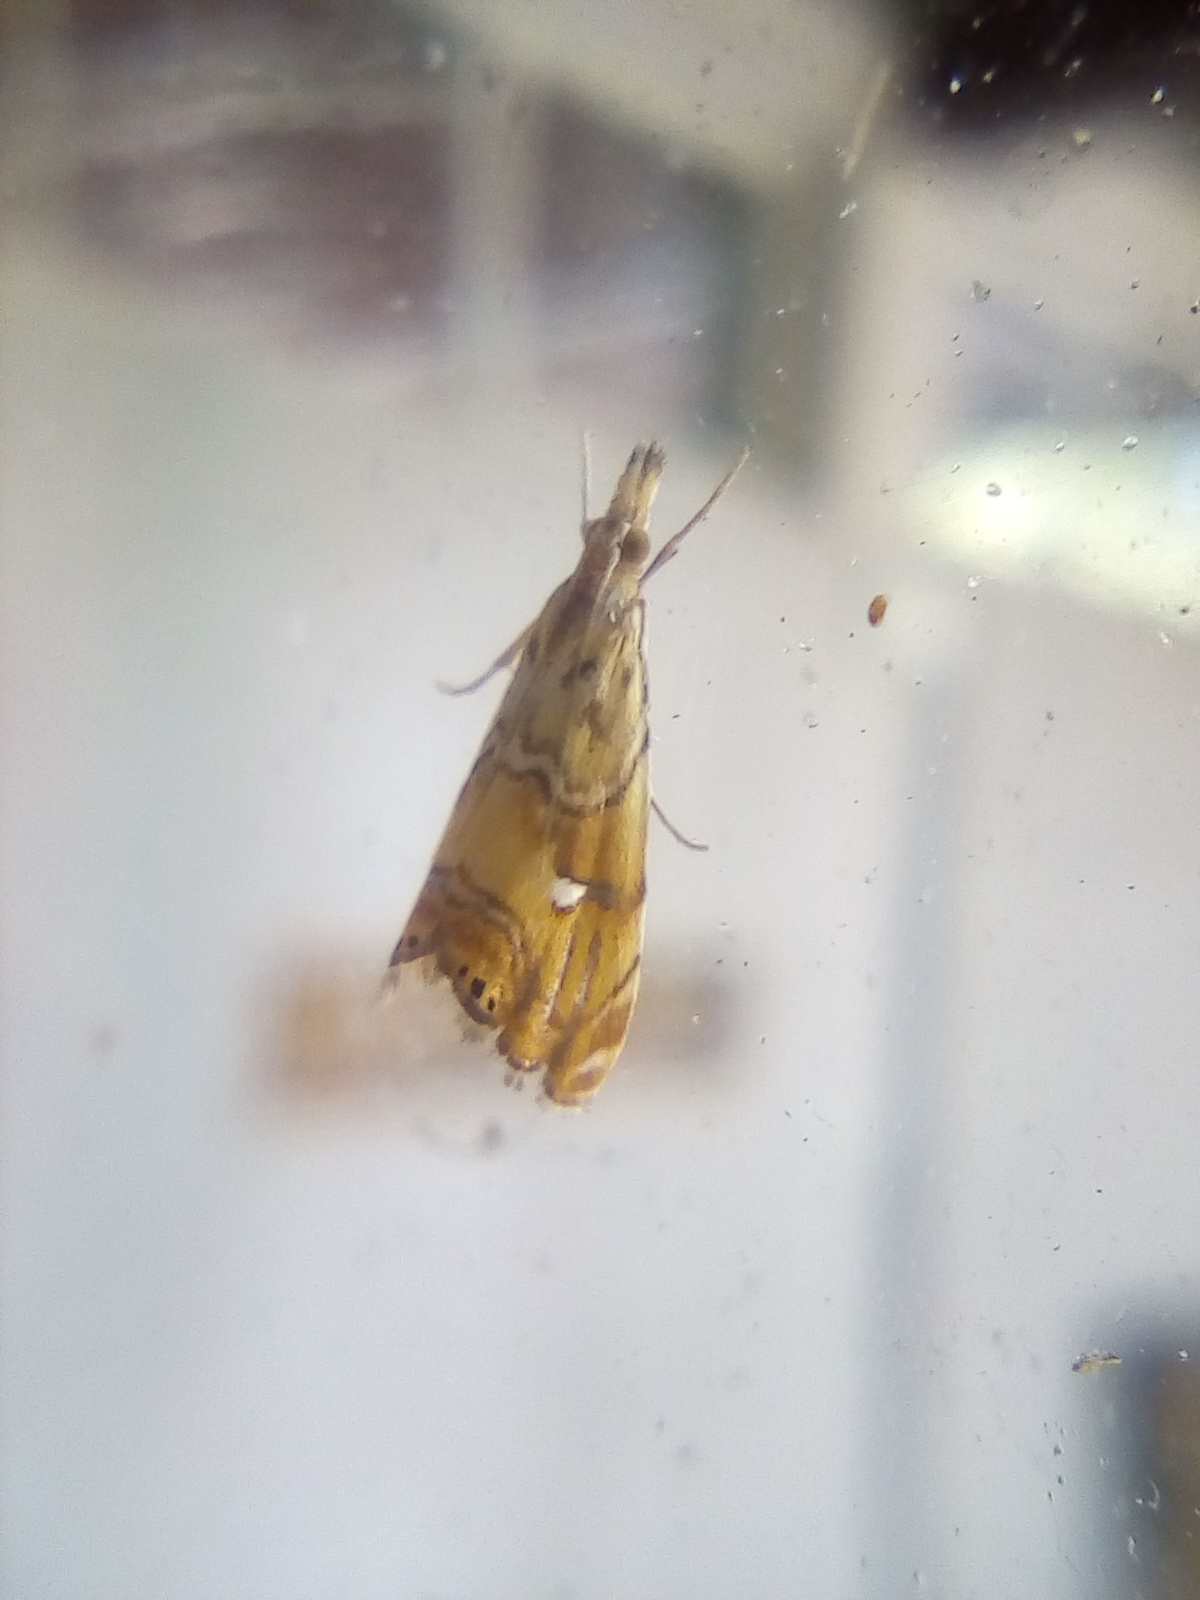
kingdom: Animalia
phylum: Arthropoda
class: Insecta
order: Lepidoptera
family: Crambidae
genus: Glaucocharis
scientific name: Glaucocharis chrysochyta
